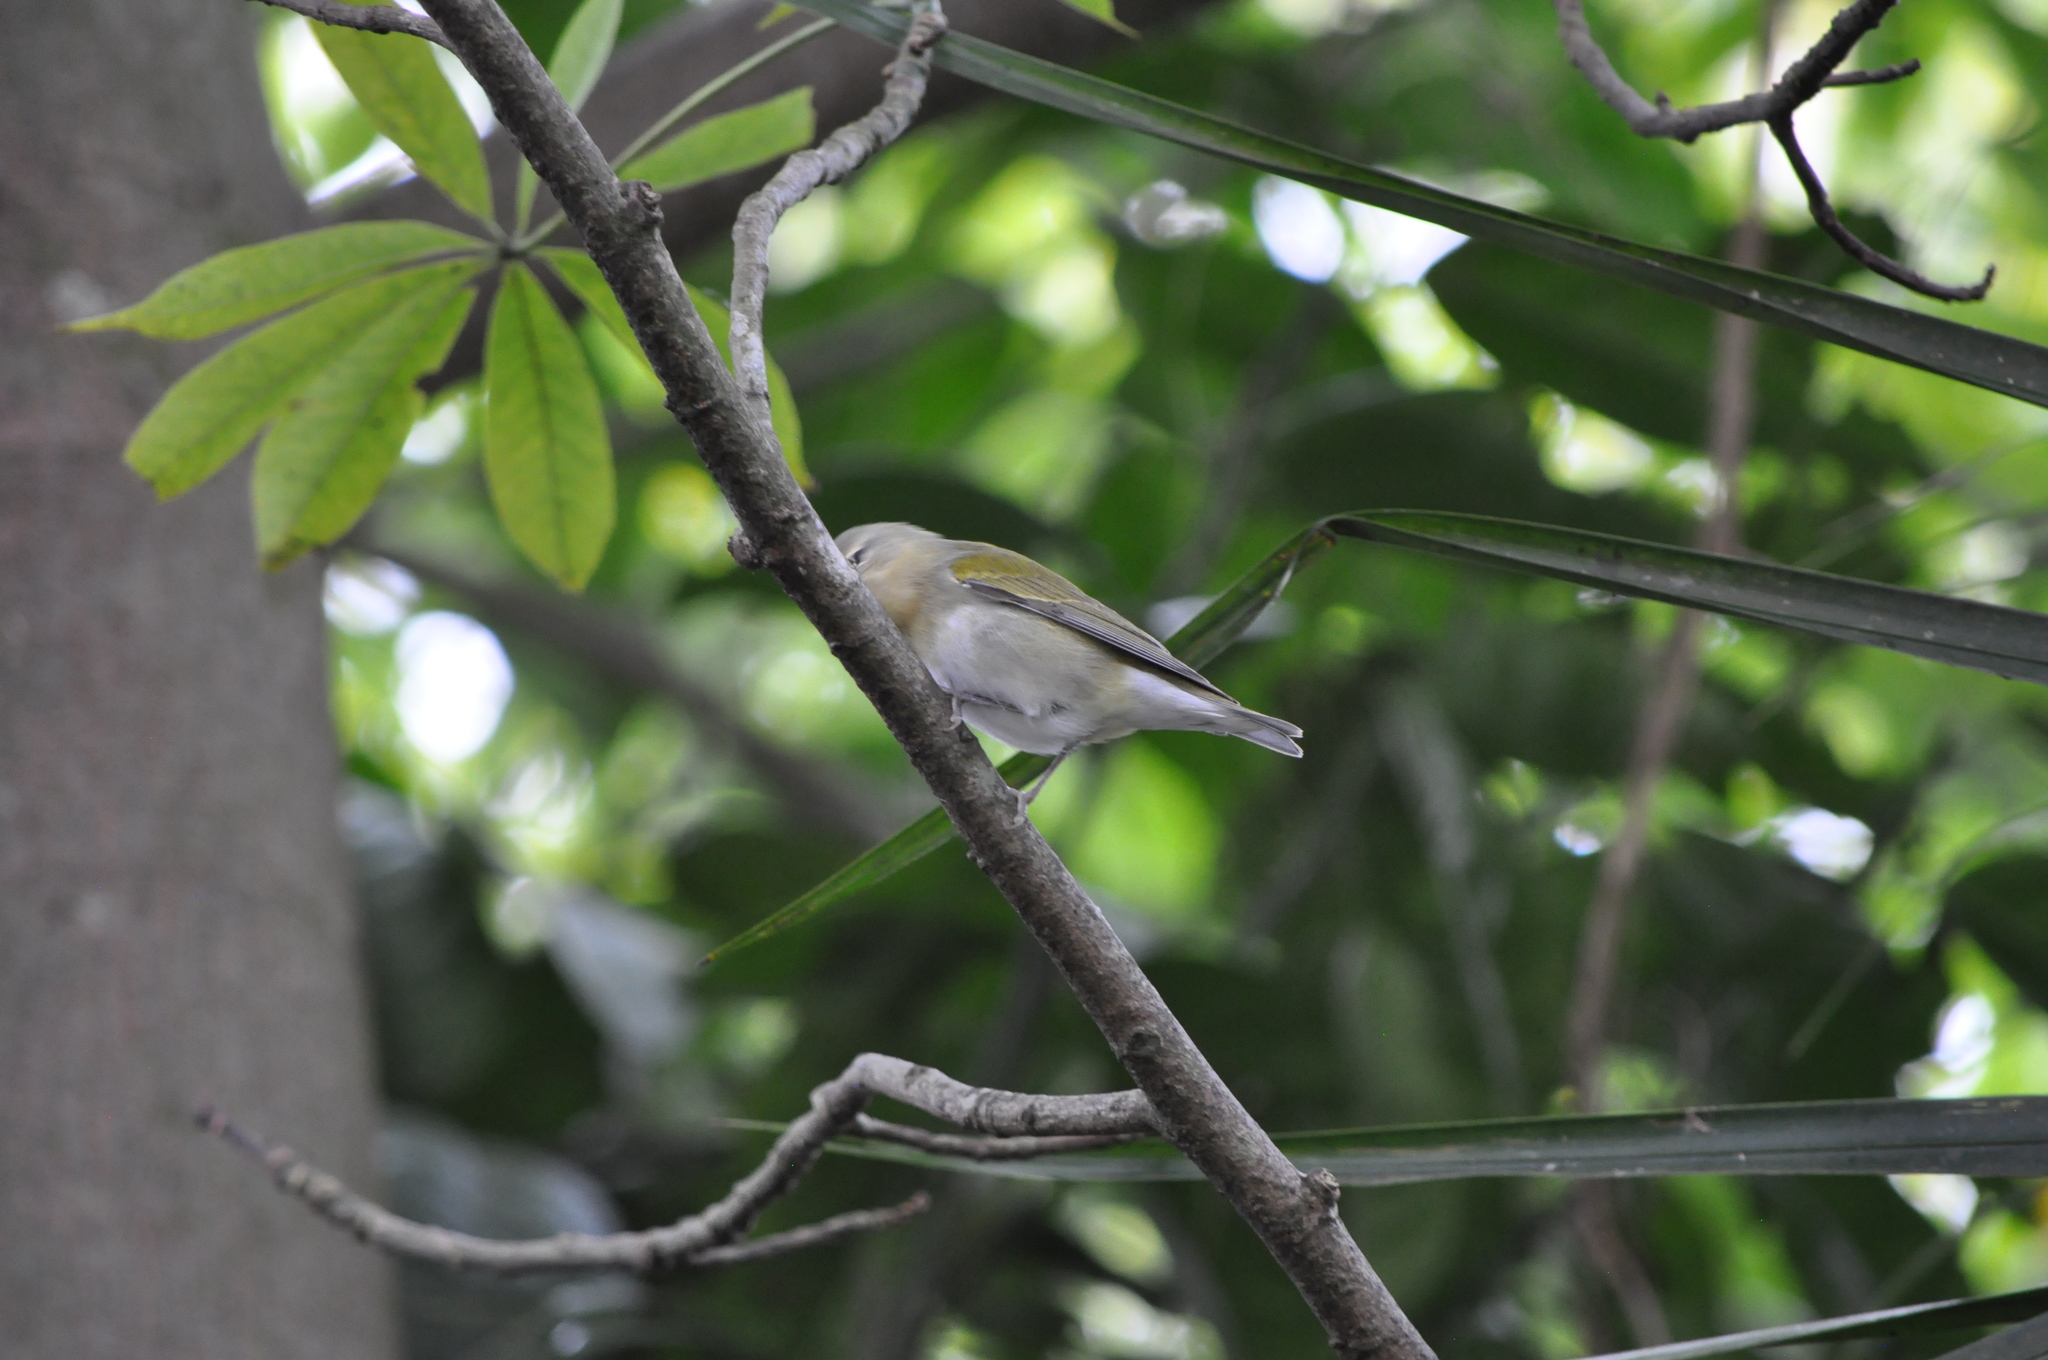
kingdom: Animalia
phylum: Chordata
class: Aves
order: Passeriformes
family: Parulidae
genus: Leiothlypis
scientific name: Leiothlypis peregrina
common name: Tennessee warbler
